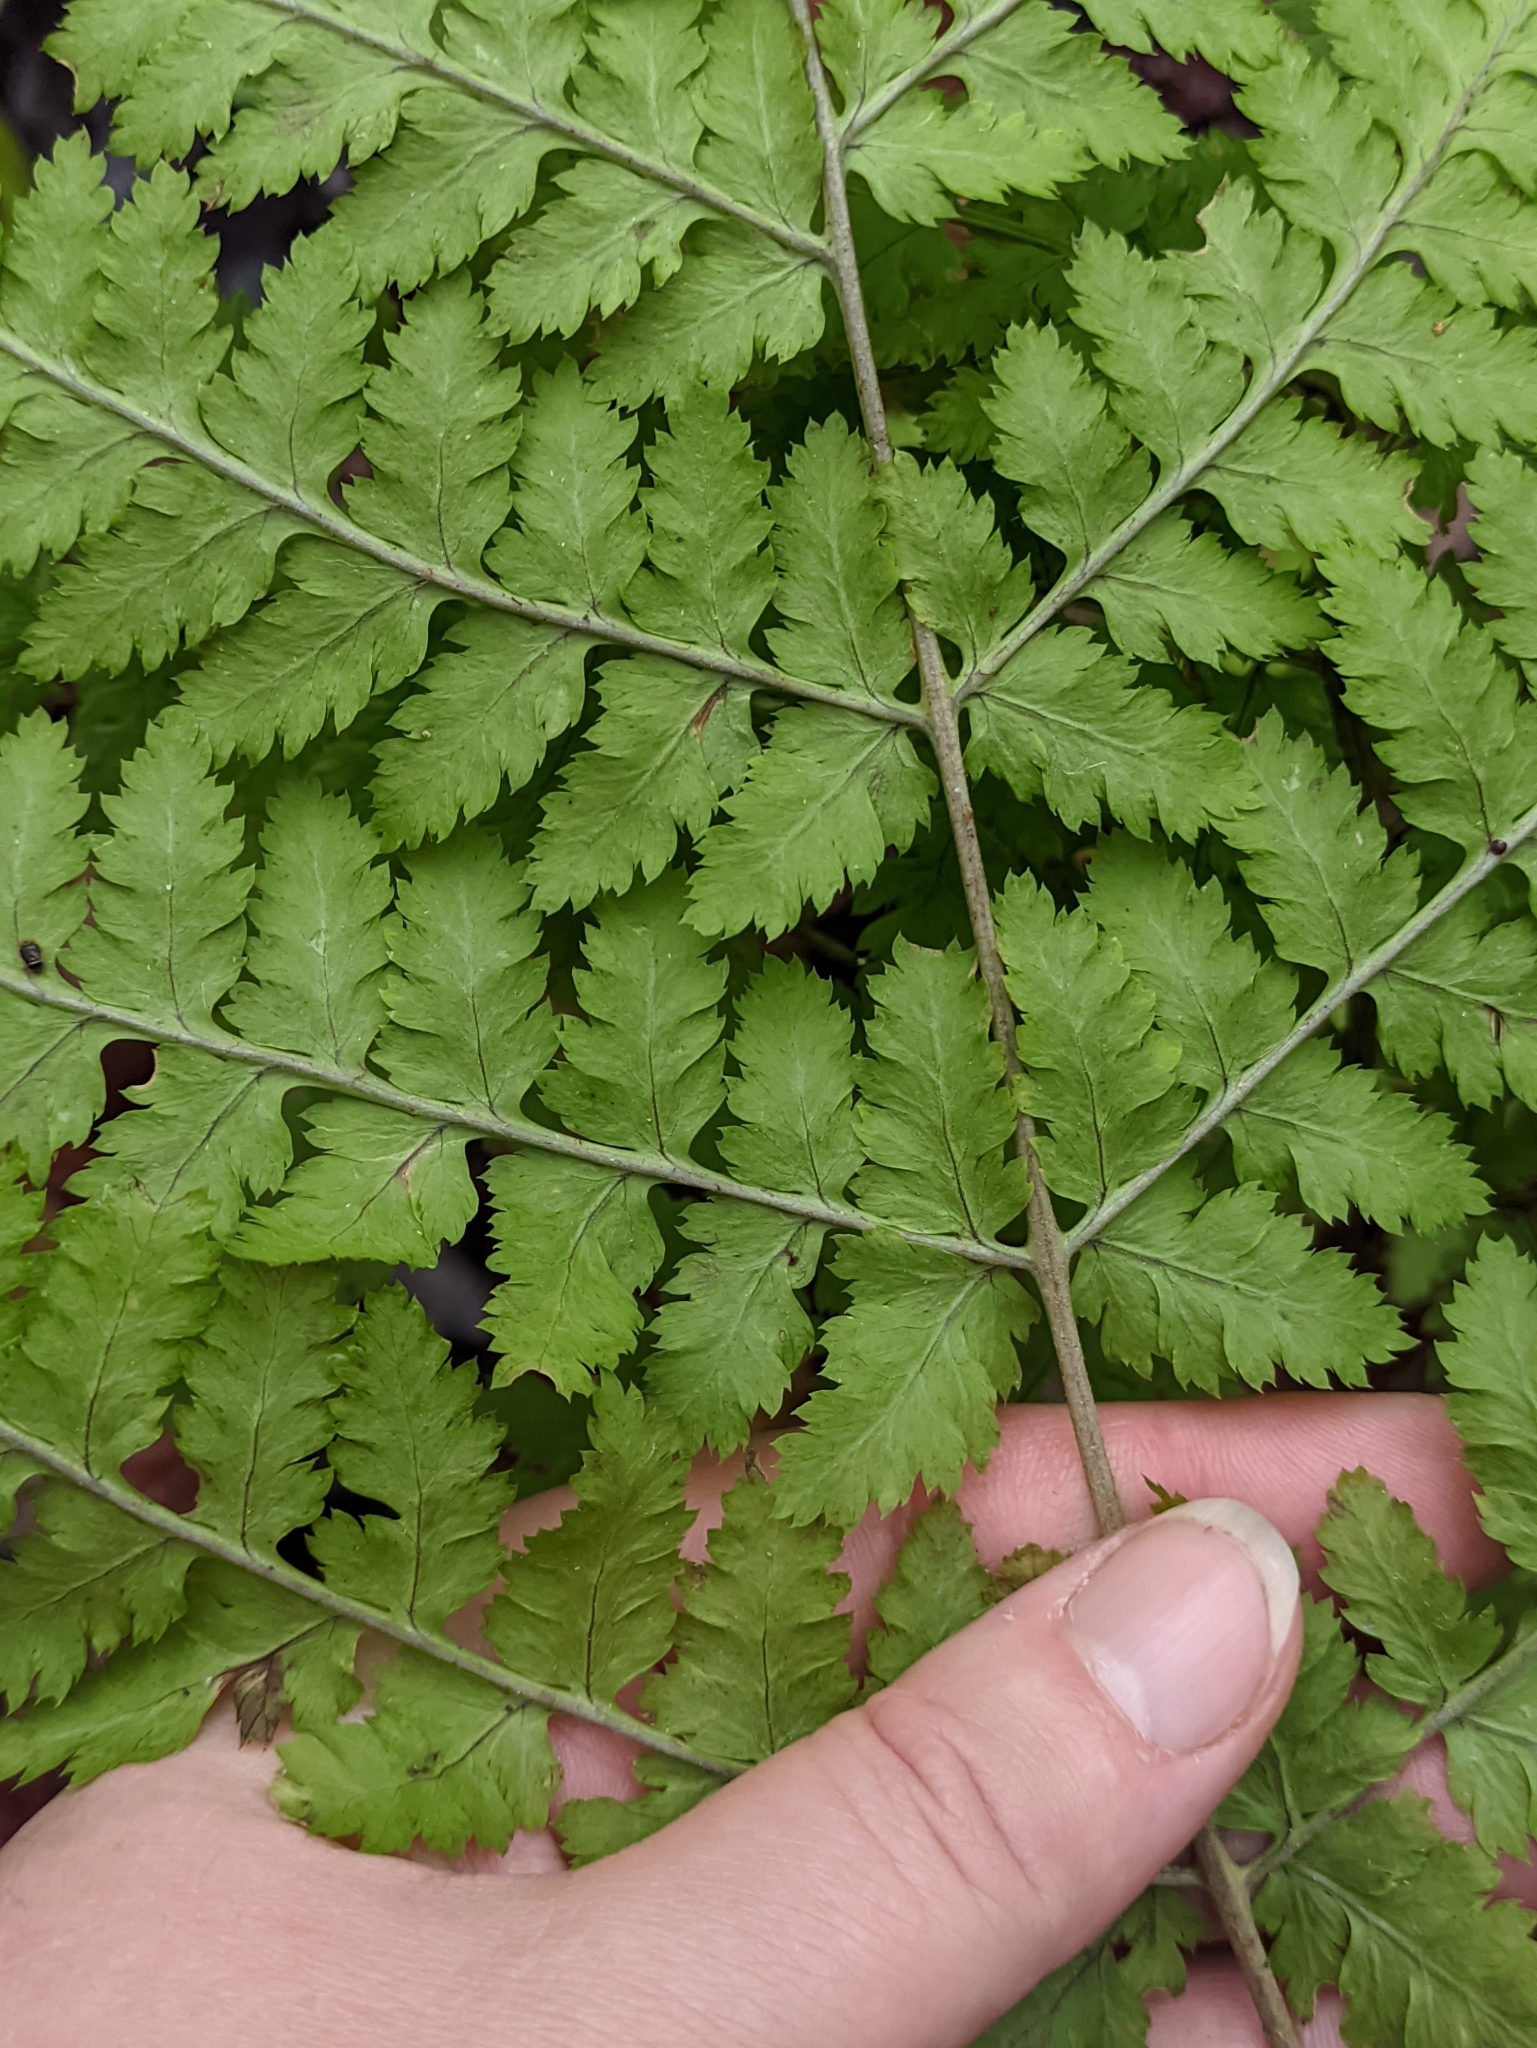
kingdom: Plantae
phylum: Tracheophyta
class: Polypodiopsida
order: Polypodiales
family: Dryopteridaceae
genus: Dryopteris
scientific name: Dryopteris carthusiana
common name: Narrow buckler-fern
